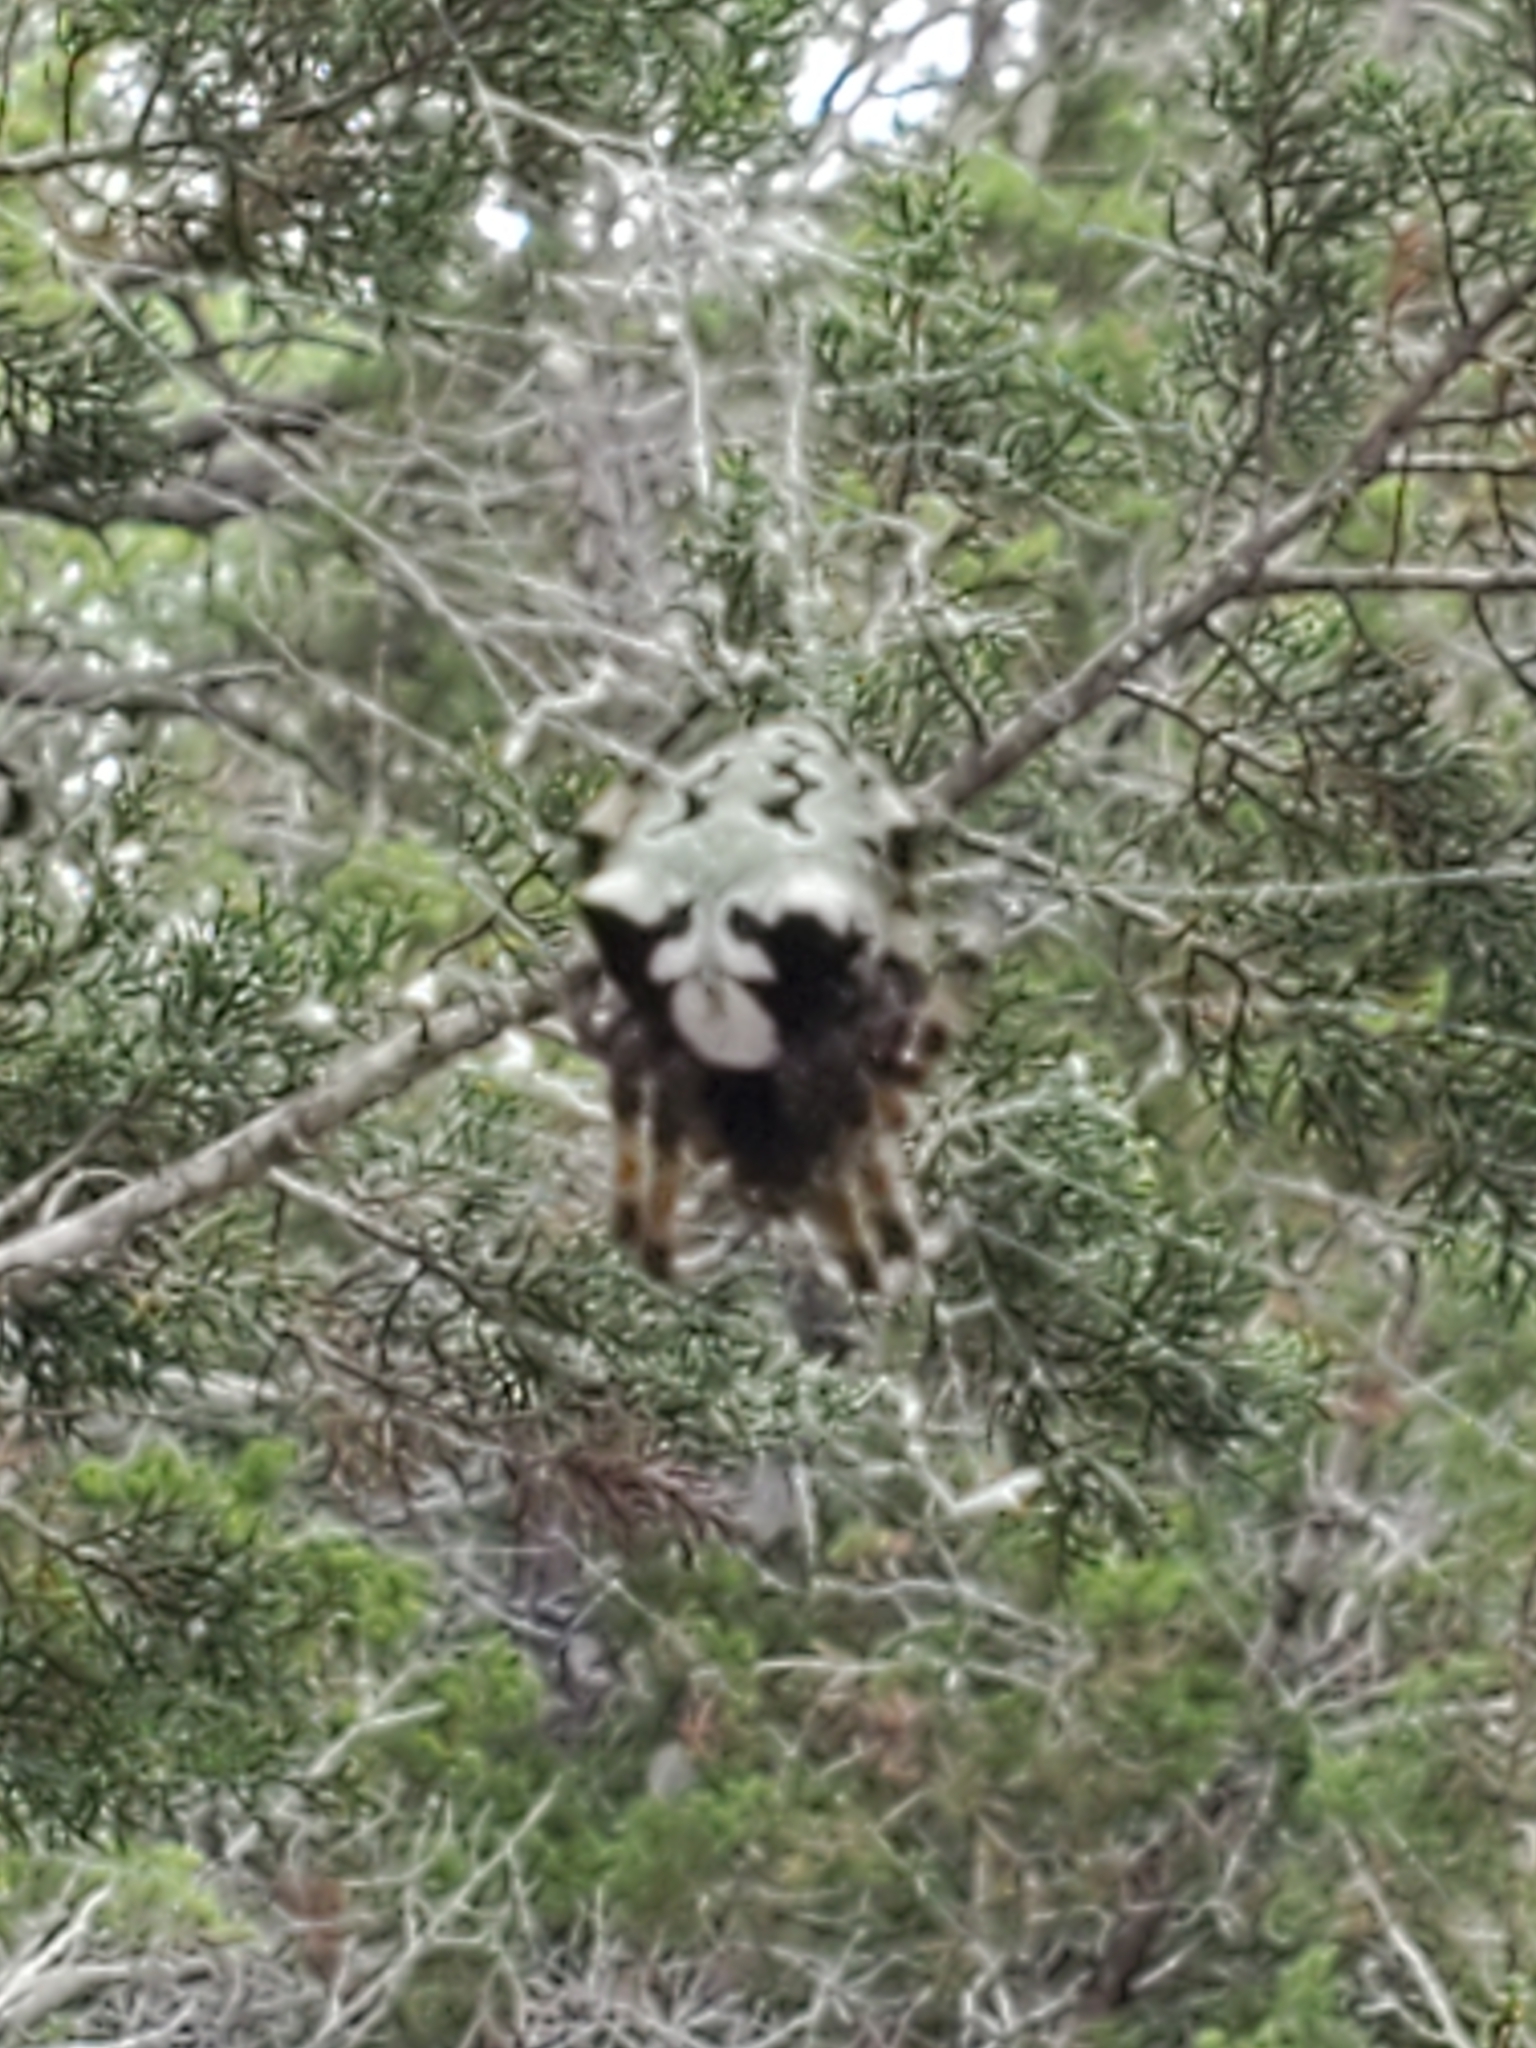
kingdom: Animalia
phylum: Arthropoda
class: Arachnida
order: Araneae
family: Araneidae
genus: Araneus
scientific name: Araneus bicentenarius
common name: Giant lichen orbweaver
